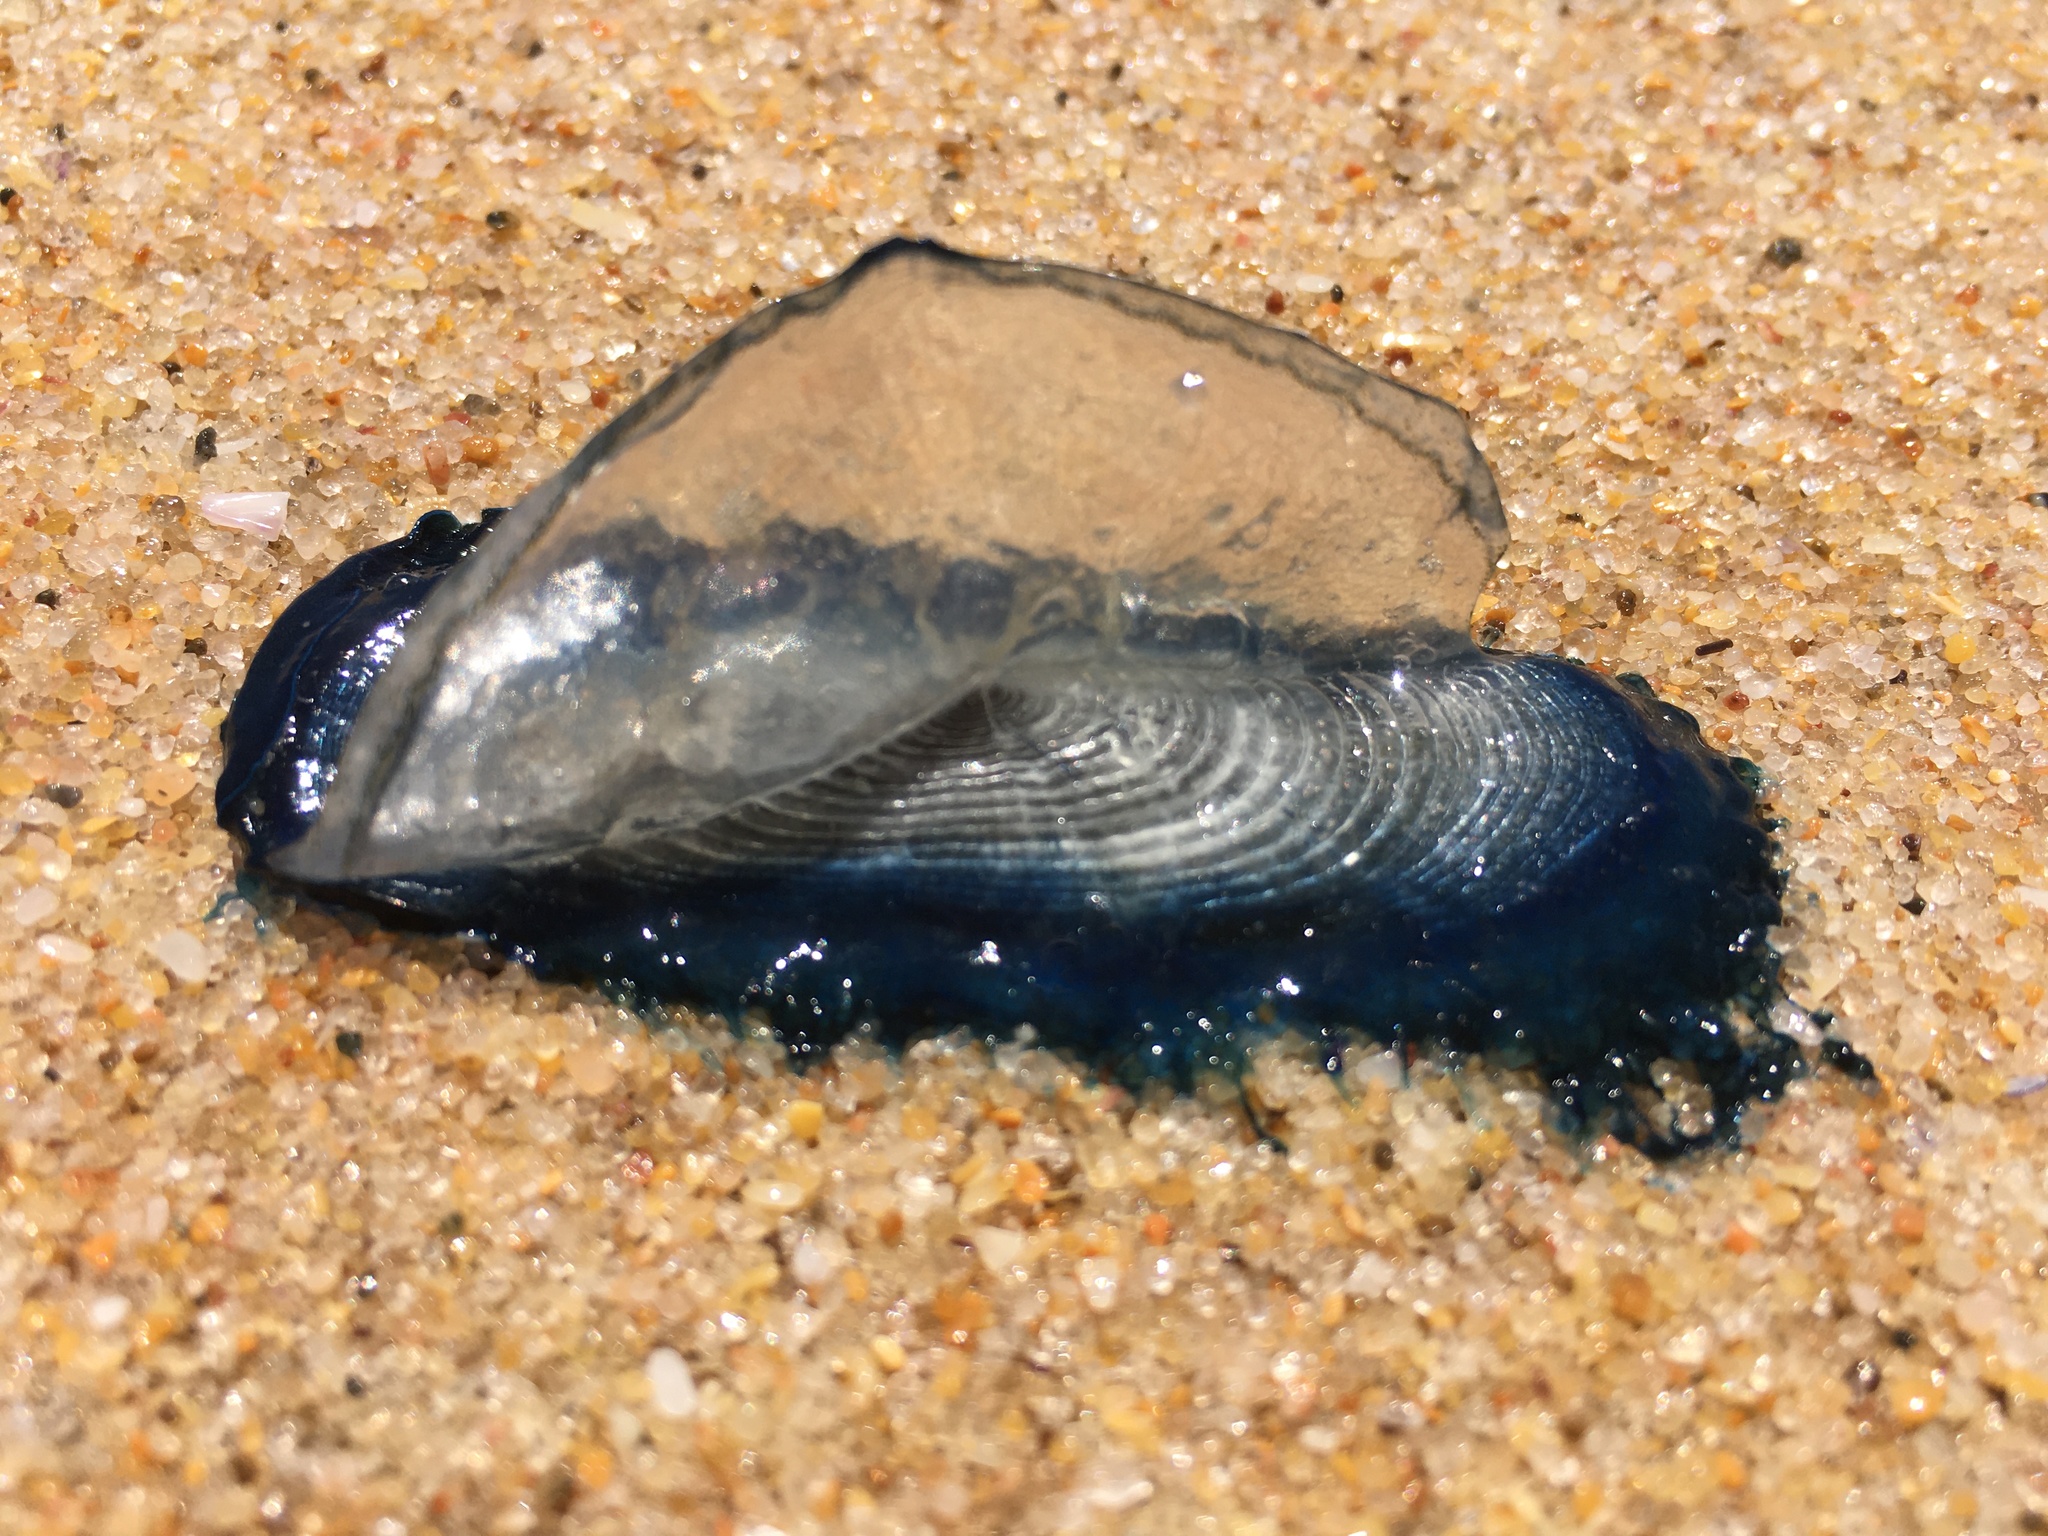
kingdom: Animalia
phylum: Cnidaria
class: Hydrozoa
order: Anthoathecata
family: Porpitidae
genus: Velella
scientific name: Velella velella
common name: By-the-wind-sailor
